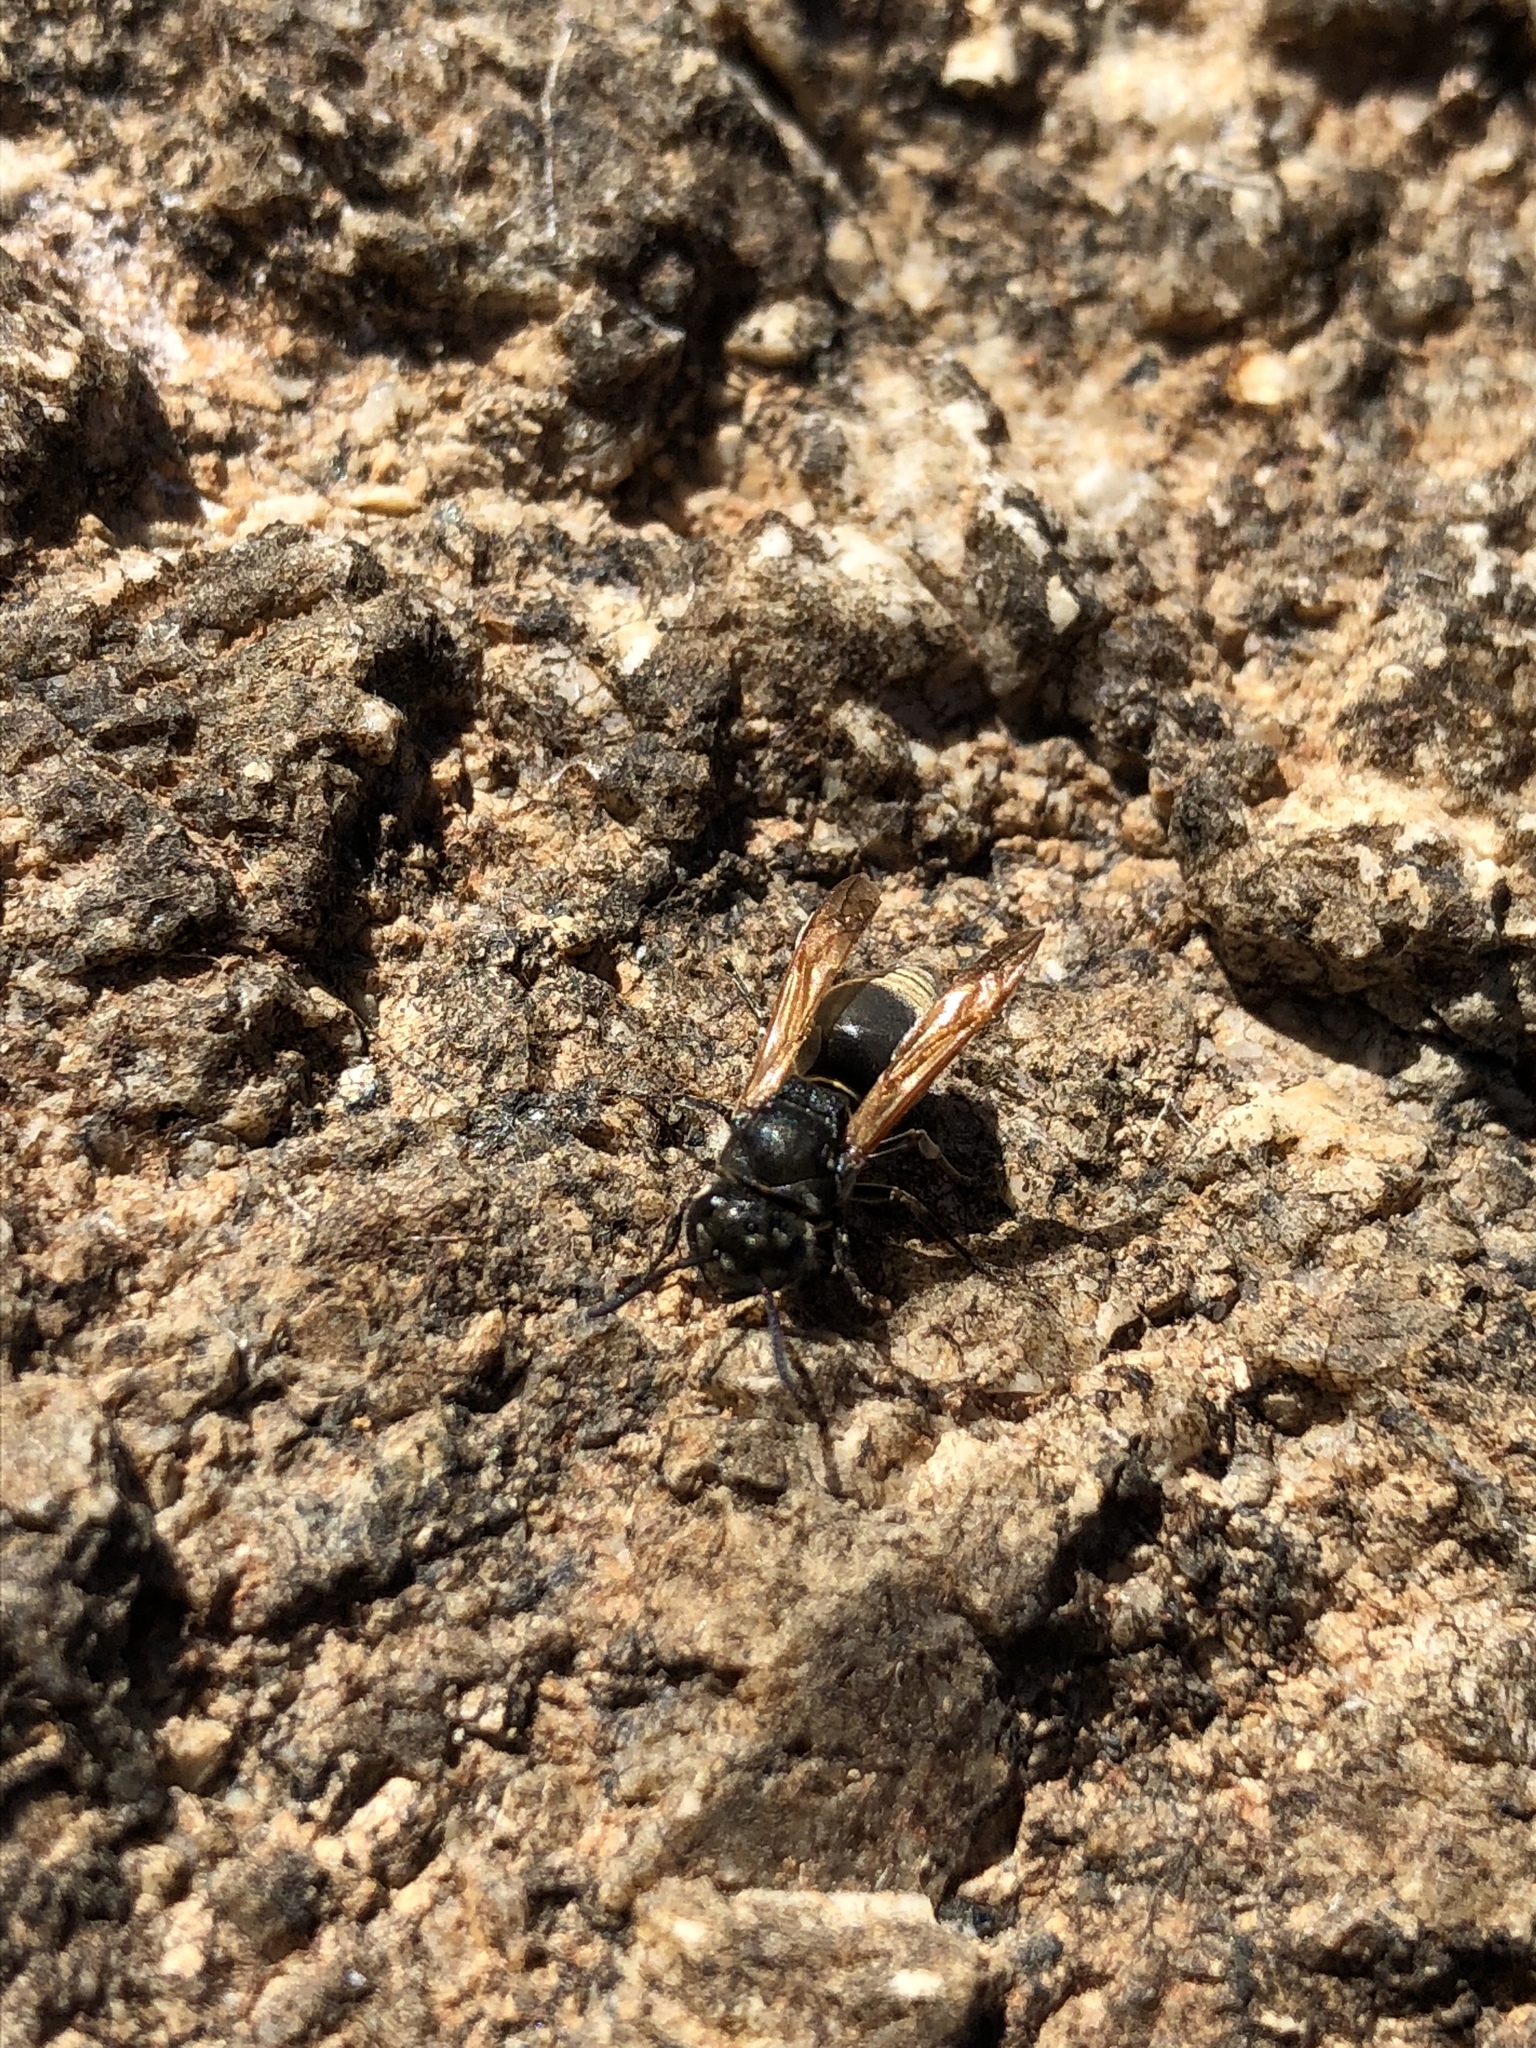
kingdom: Animalia
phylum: Arthropoda
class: Insecta
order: Hymenoptera
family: Vespidae
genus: Brachygastra
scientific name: Brachygastra mellifica
